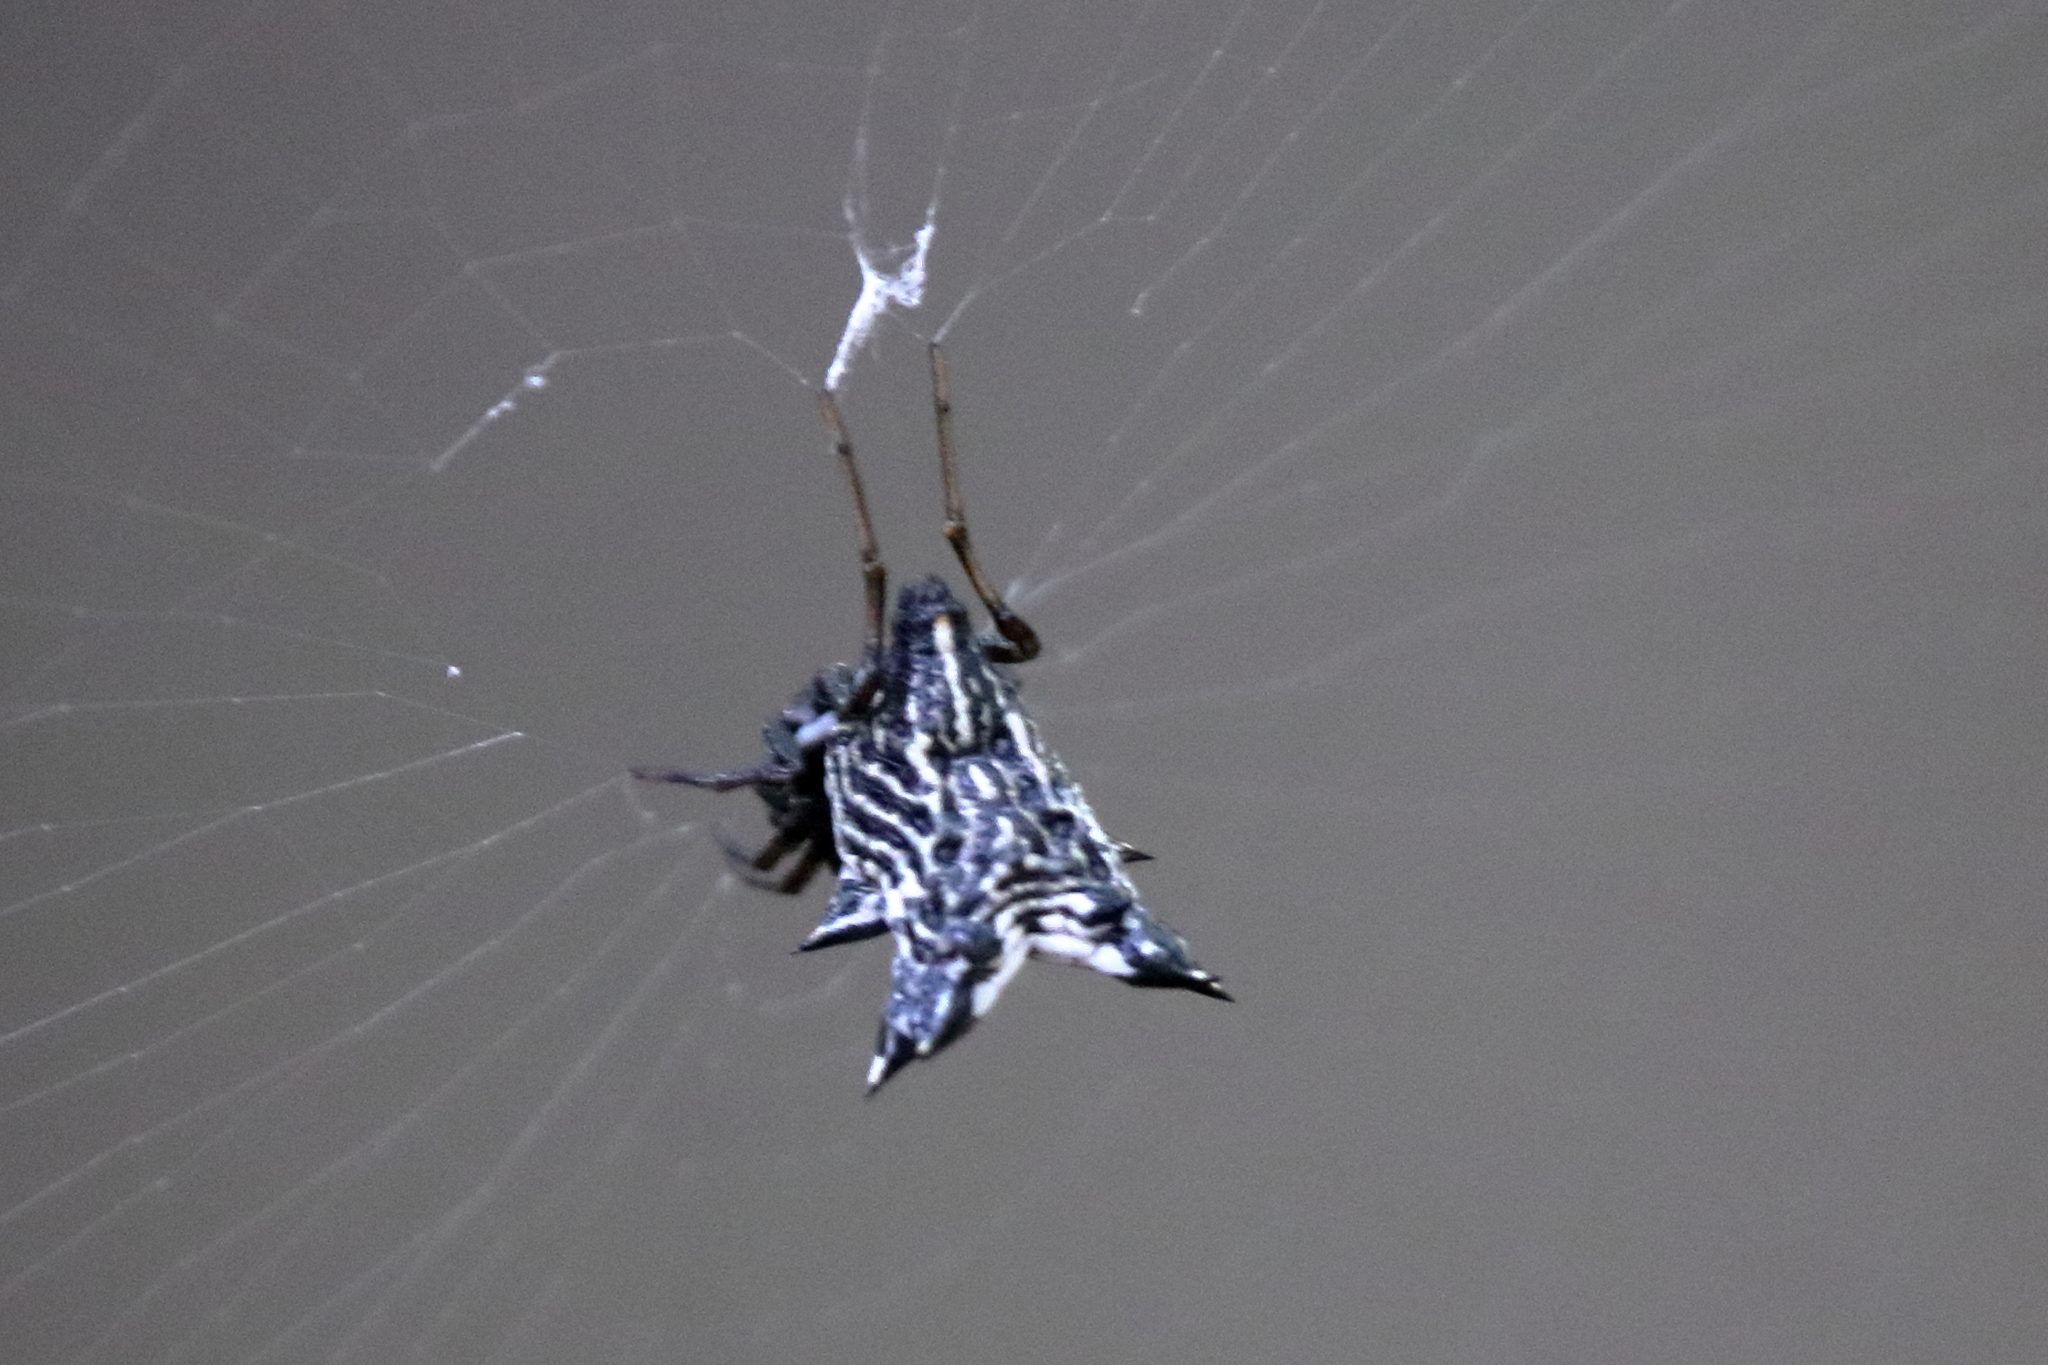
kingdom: Animalia
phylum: Arthropoda
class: Arachnida
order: Araneae
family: Araneidae
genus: Micrathena
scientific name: Micrathena gracilis
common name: Orb weavers
